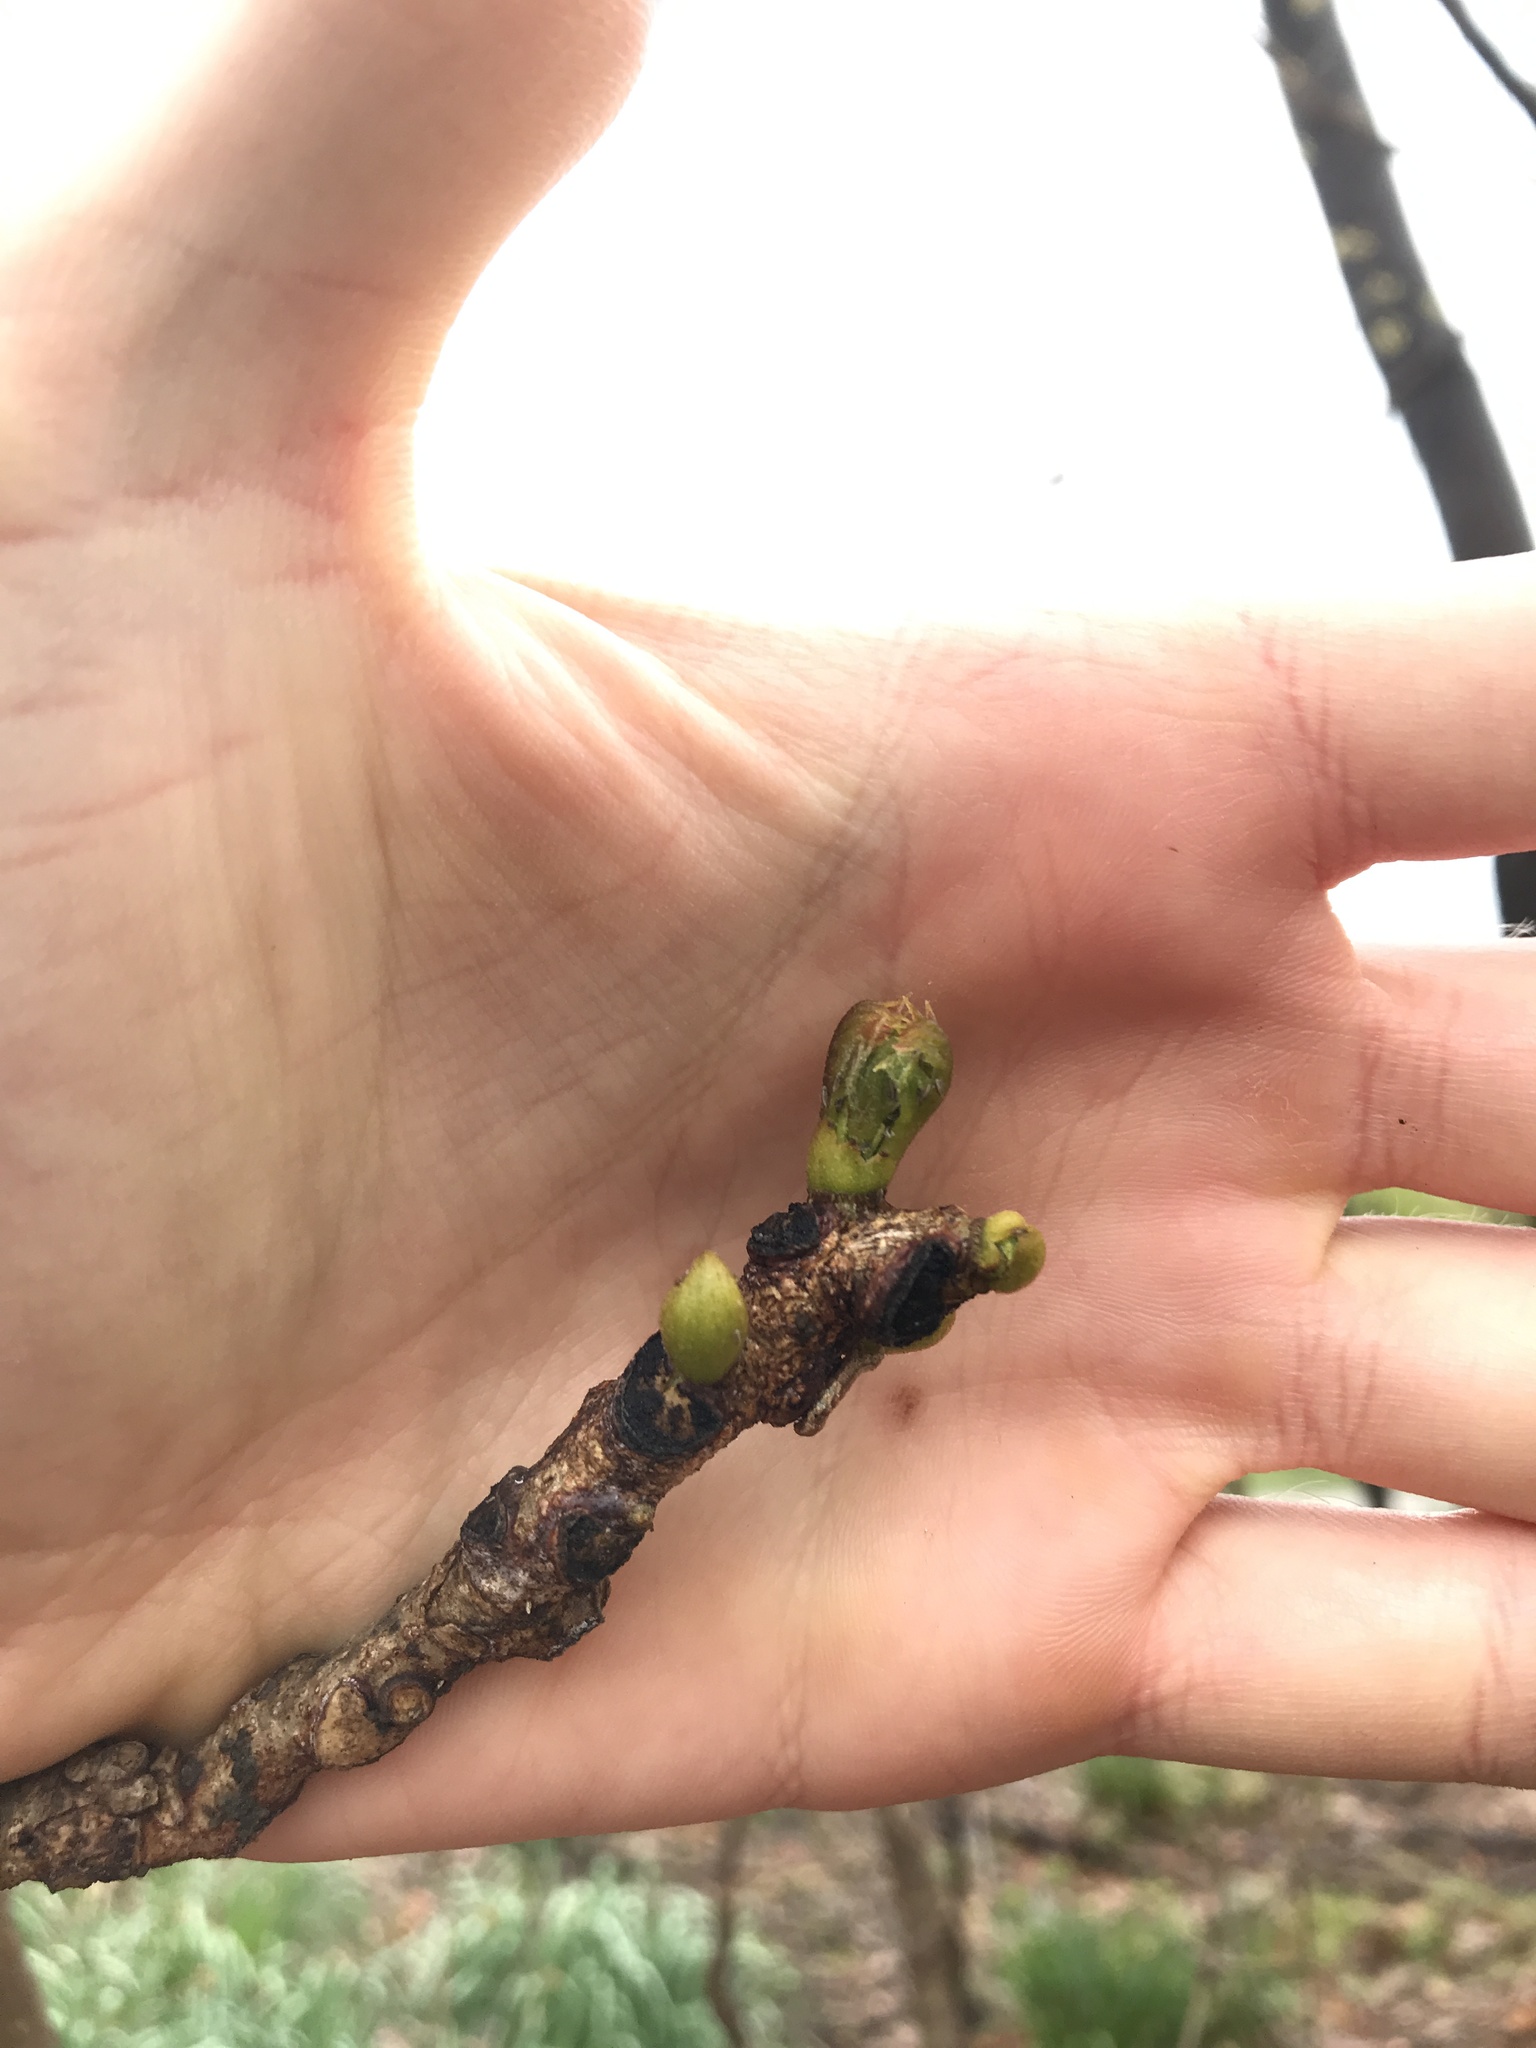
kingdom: Plantae
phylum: Tracheophyta
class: Magnoliopsida
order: Fabales
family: Fabaceae
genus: Gymnocladus
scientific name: Gymnocladus dioicus
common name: Kentucky coffee-tree
